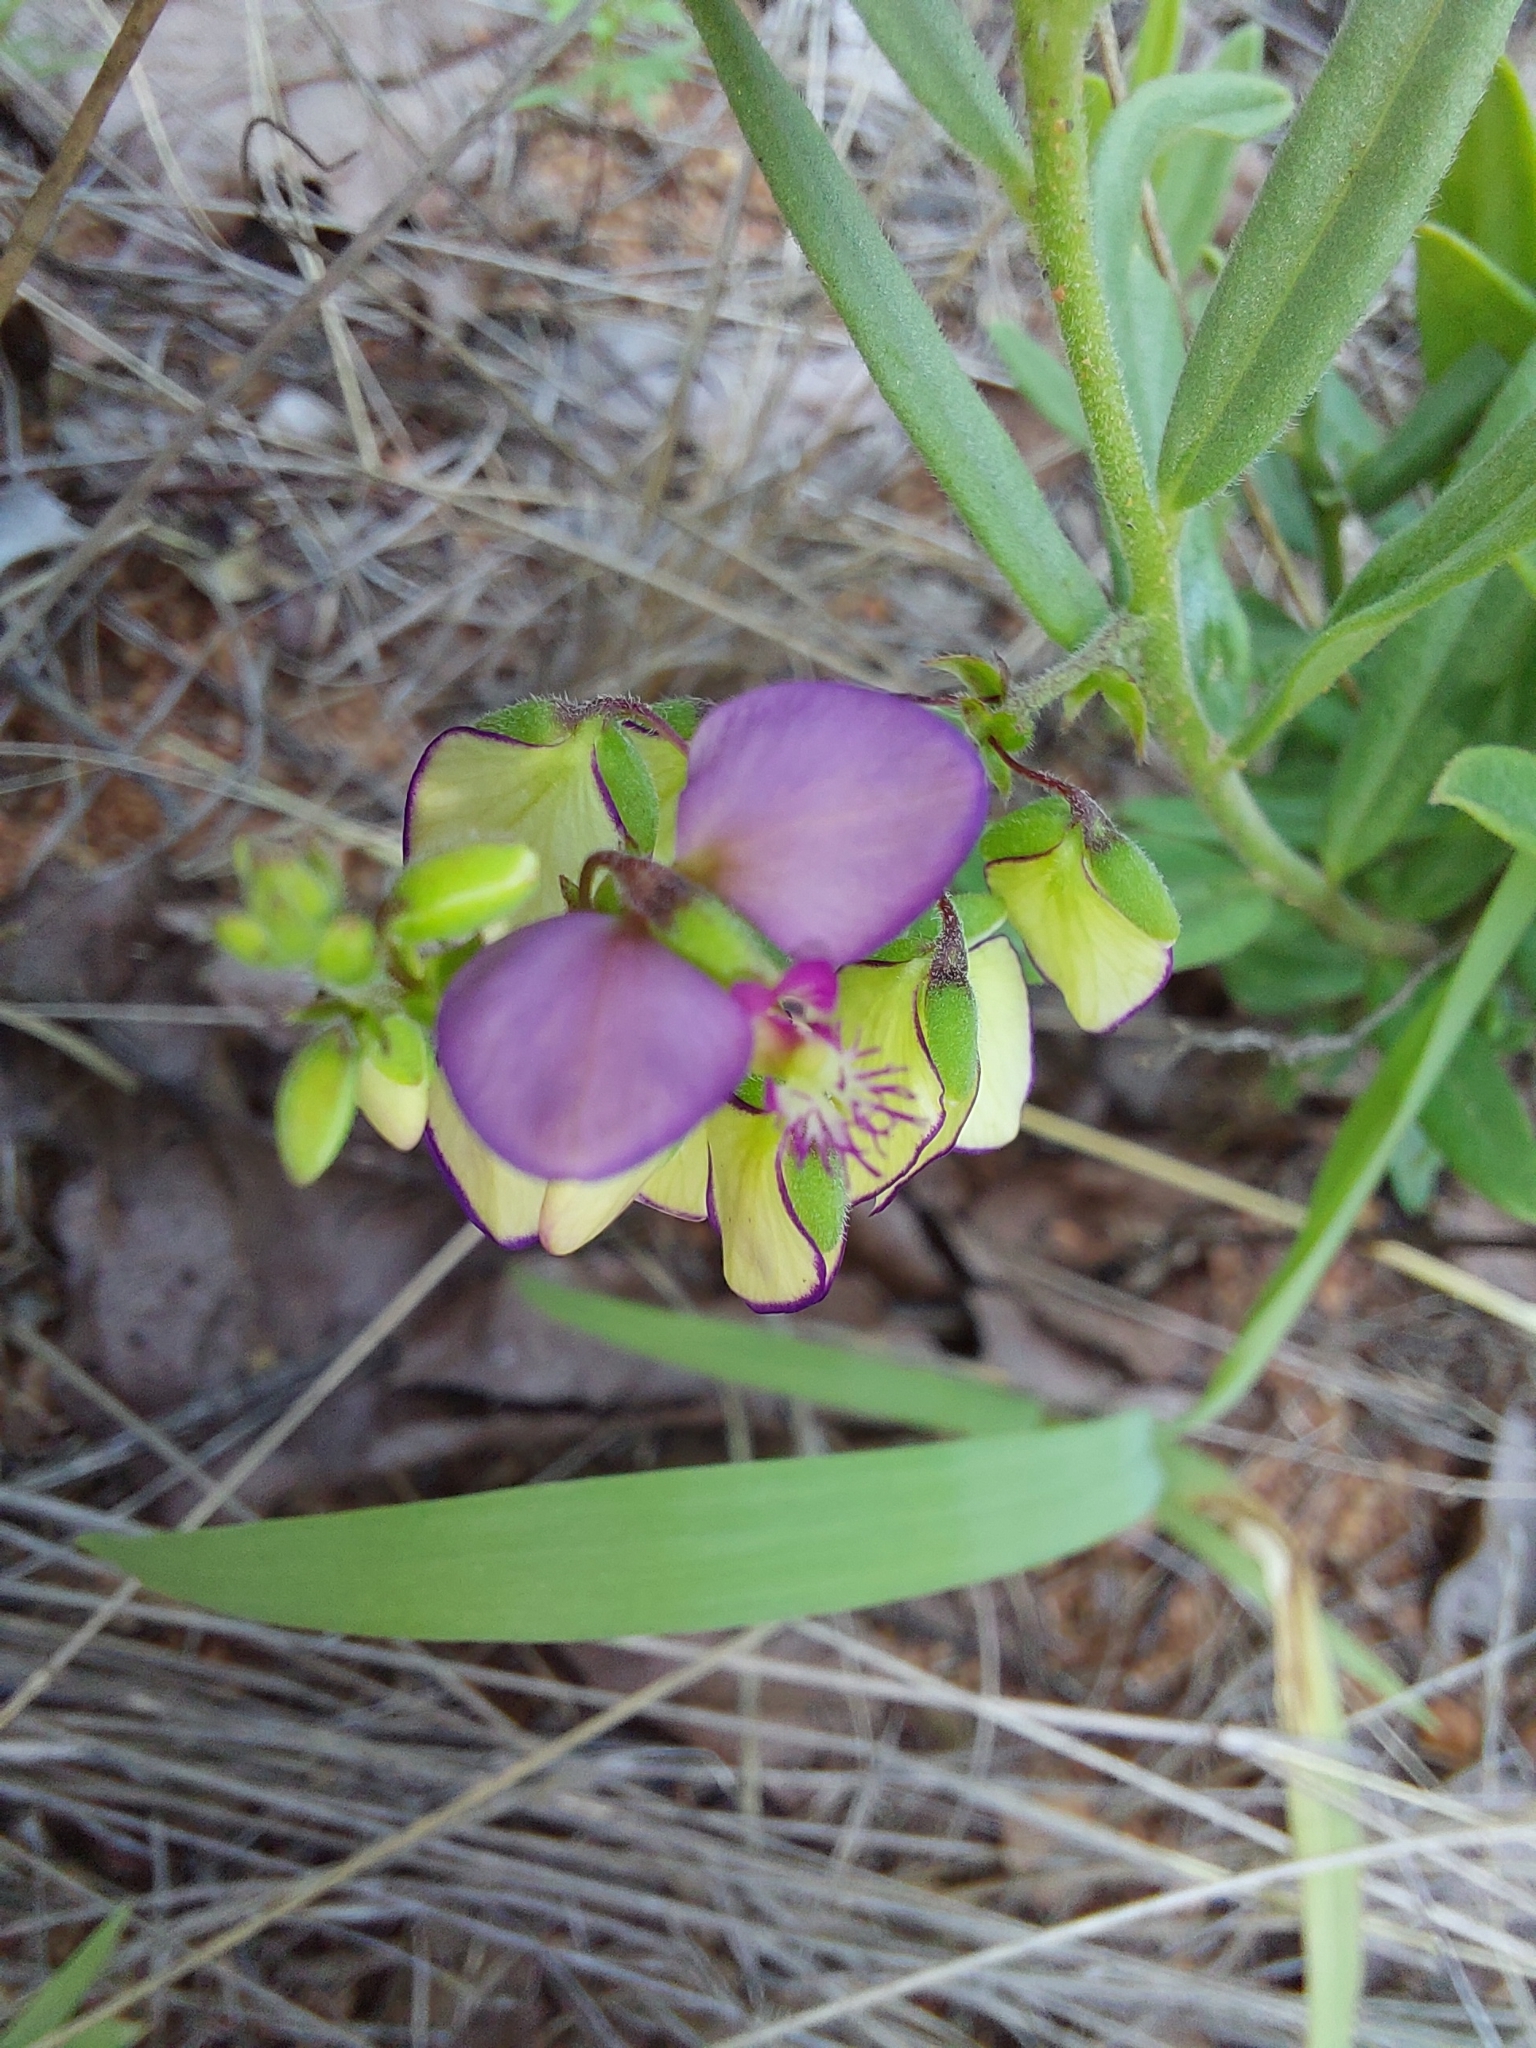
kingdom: Plantae
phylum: Tracheophyta
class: Magnoliopsida
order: Fabales
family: Polygalaceae
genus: Polygala
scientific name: Polygala sphenoptera
